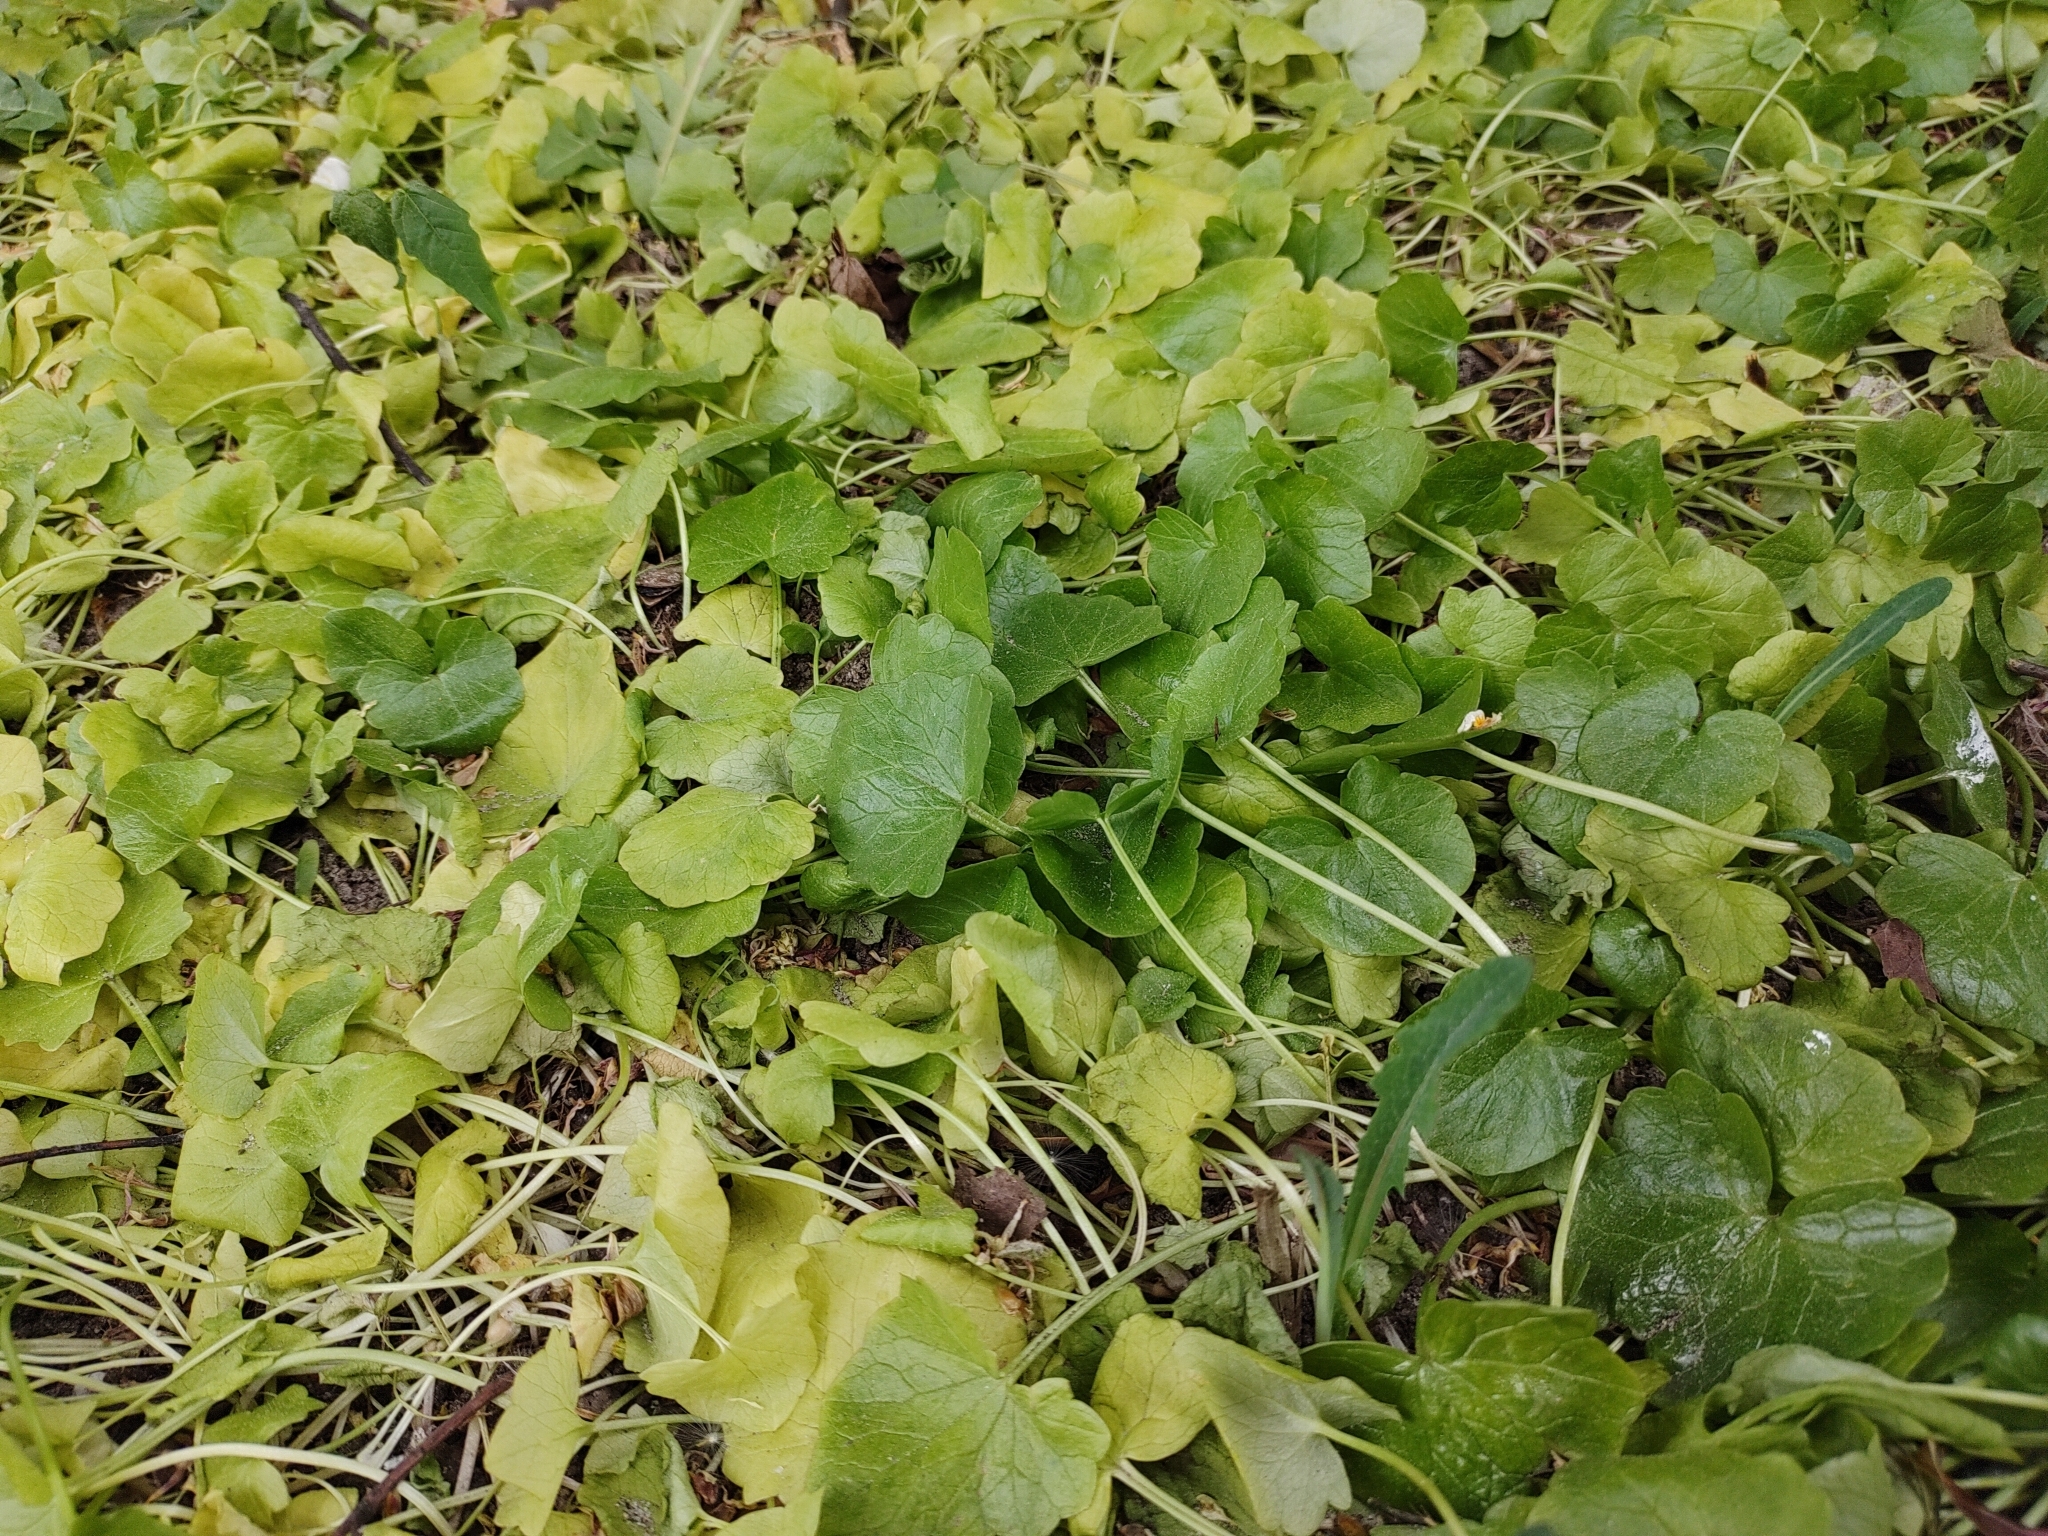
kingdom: Plantae
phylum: Tracheophyta
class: Magnoliopsida
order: Ranunculales
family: Ranunculaceae
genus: Ficaria
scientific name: Ficaria verna
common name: Lesser celandine
